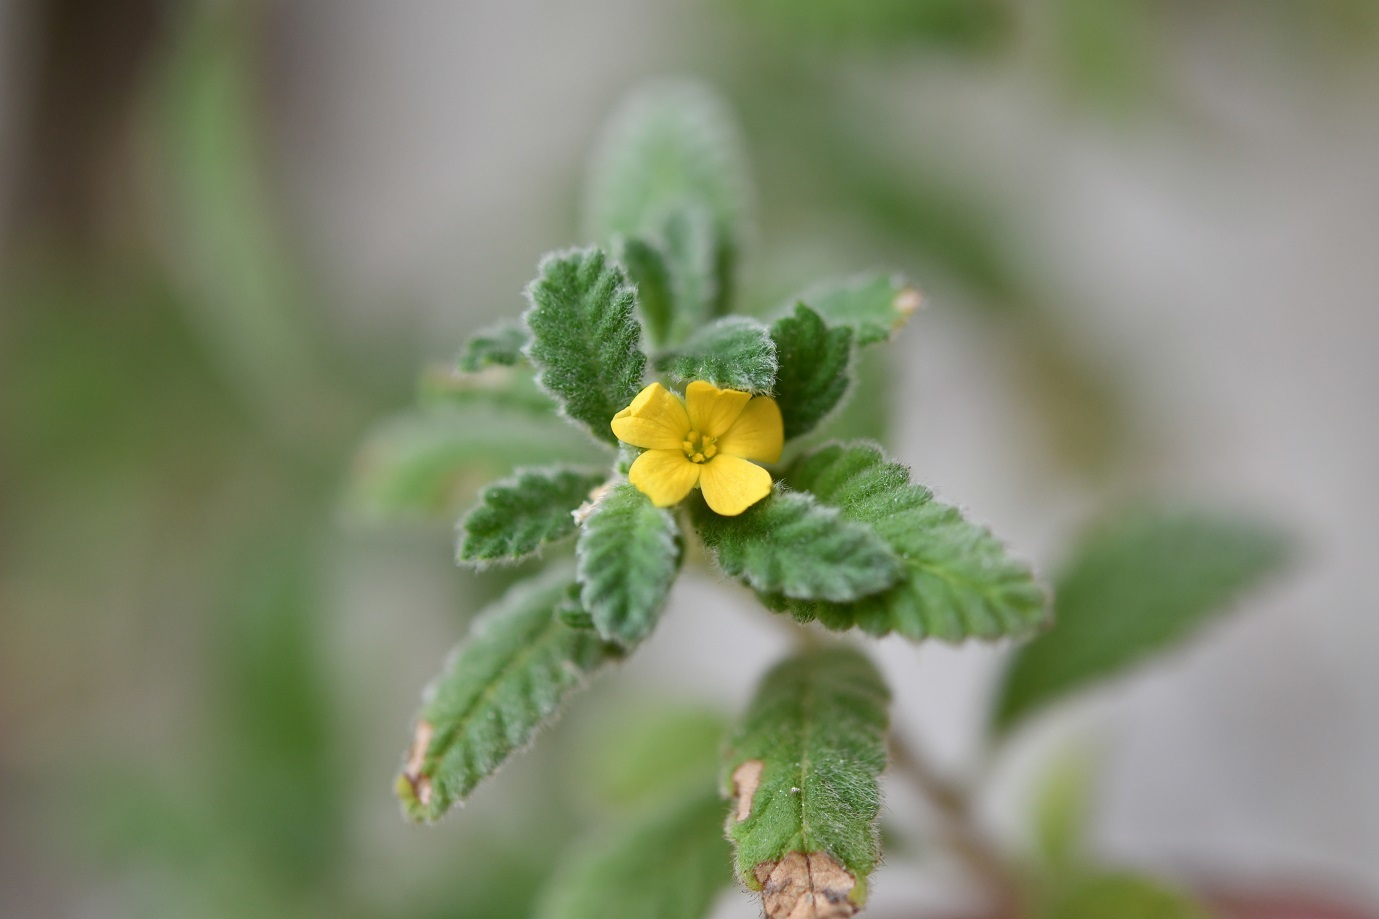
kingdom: Plantae
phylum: Tracheophyta
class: Magnoliopsida
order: Malpighiales
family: Turneraceae
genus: Turnera
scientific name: Turnera diffusa
